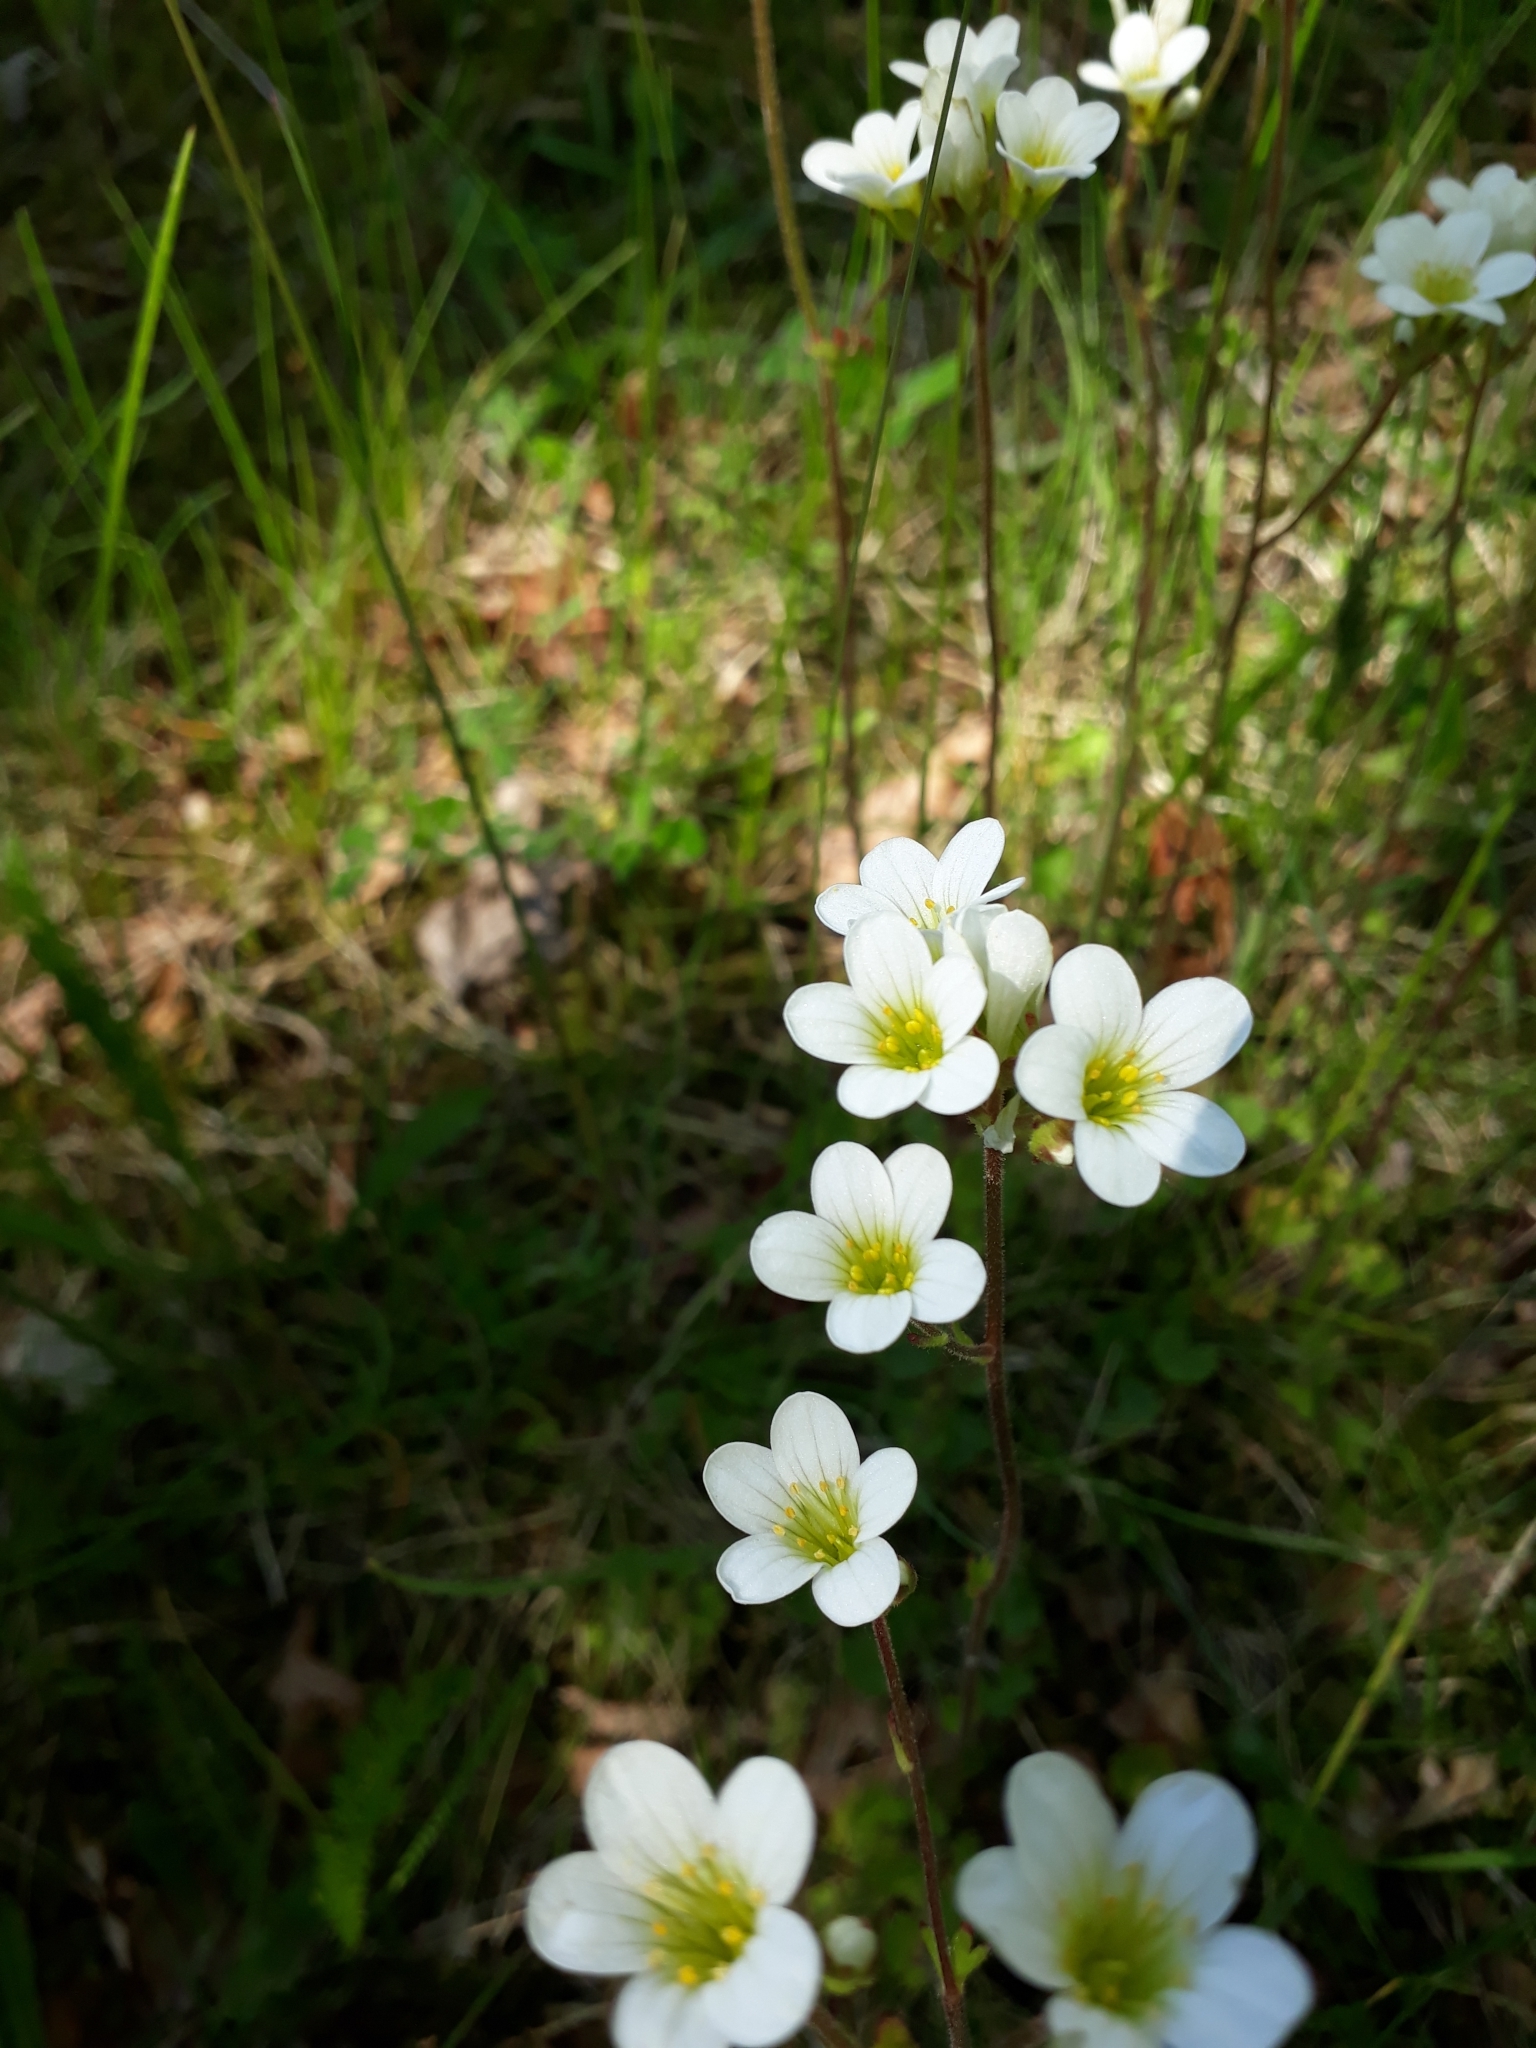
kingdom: Plantae
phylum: Tracheophyta
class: Magnoliopsida
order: Saxifragales
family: Saxifragaceae
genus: Saxifraga
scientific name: Saxifraga granulata
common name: Meadow saxifrage
